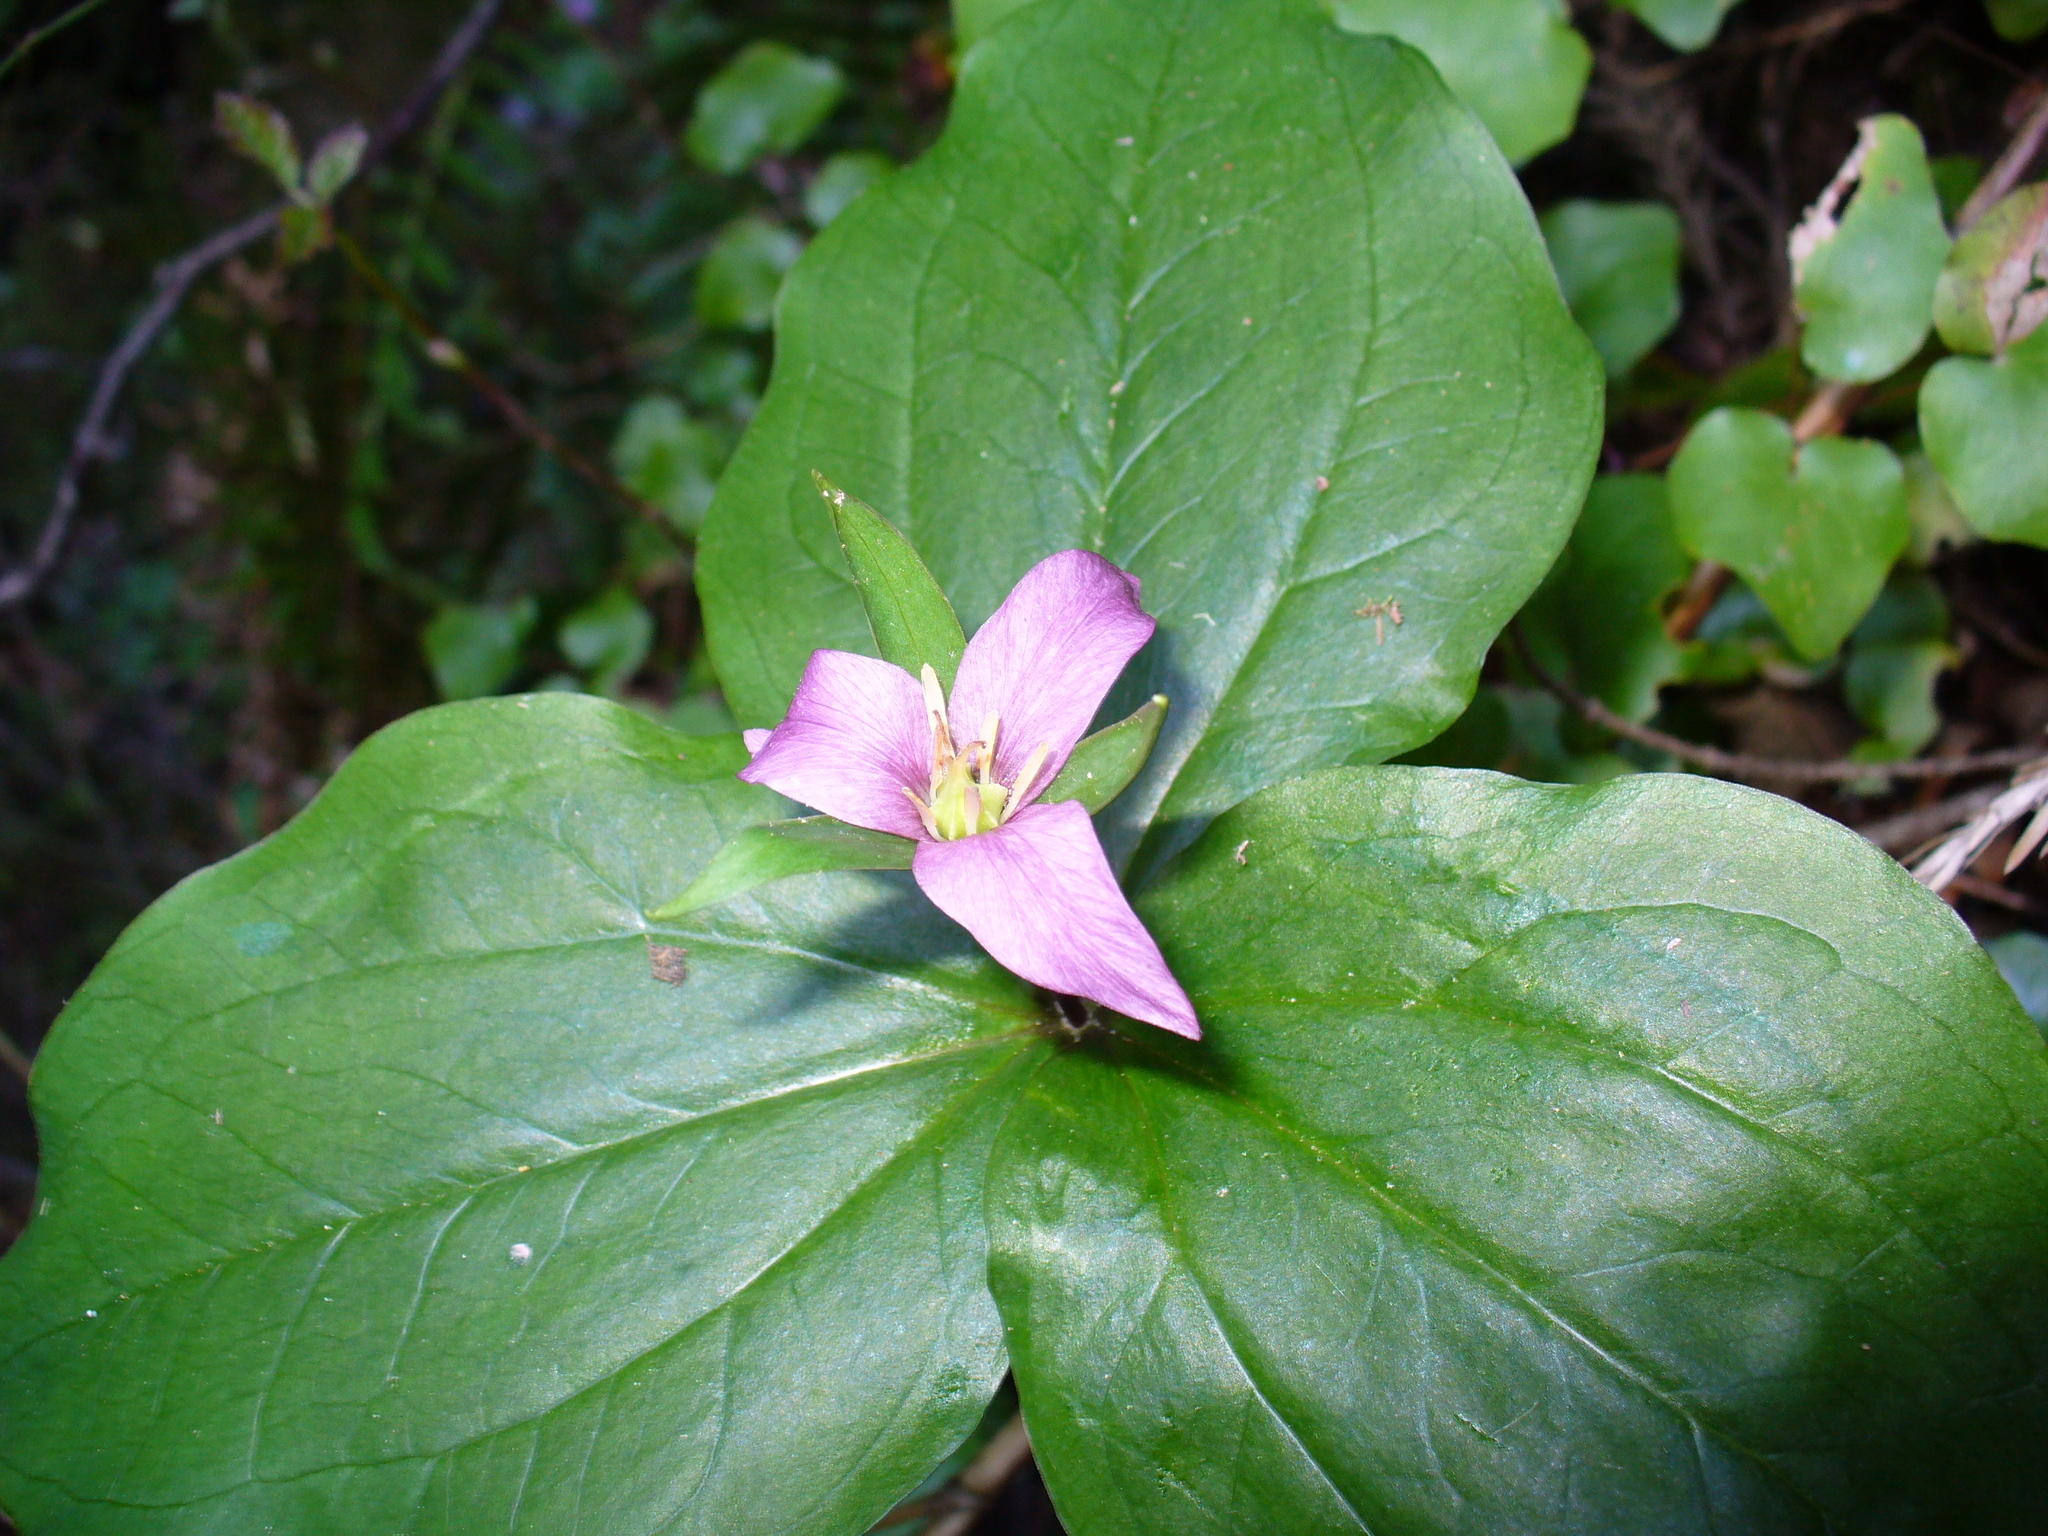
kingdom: Plantae
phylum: Tracheophyta
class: Liliopsida
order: Liliales
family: Melanthiaceae
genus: Trillium
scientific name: Trillium ovatum
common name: Pacific trillium
